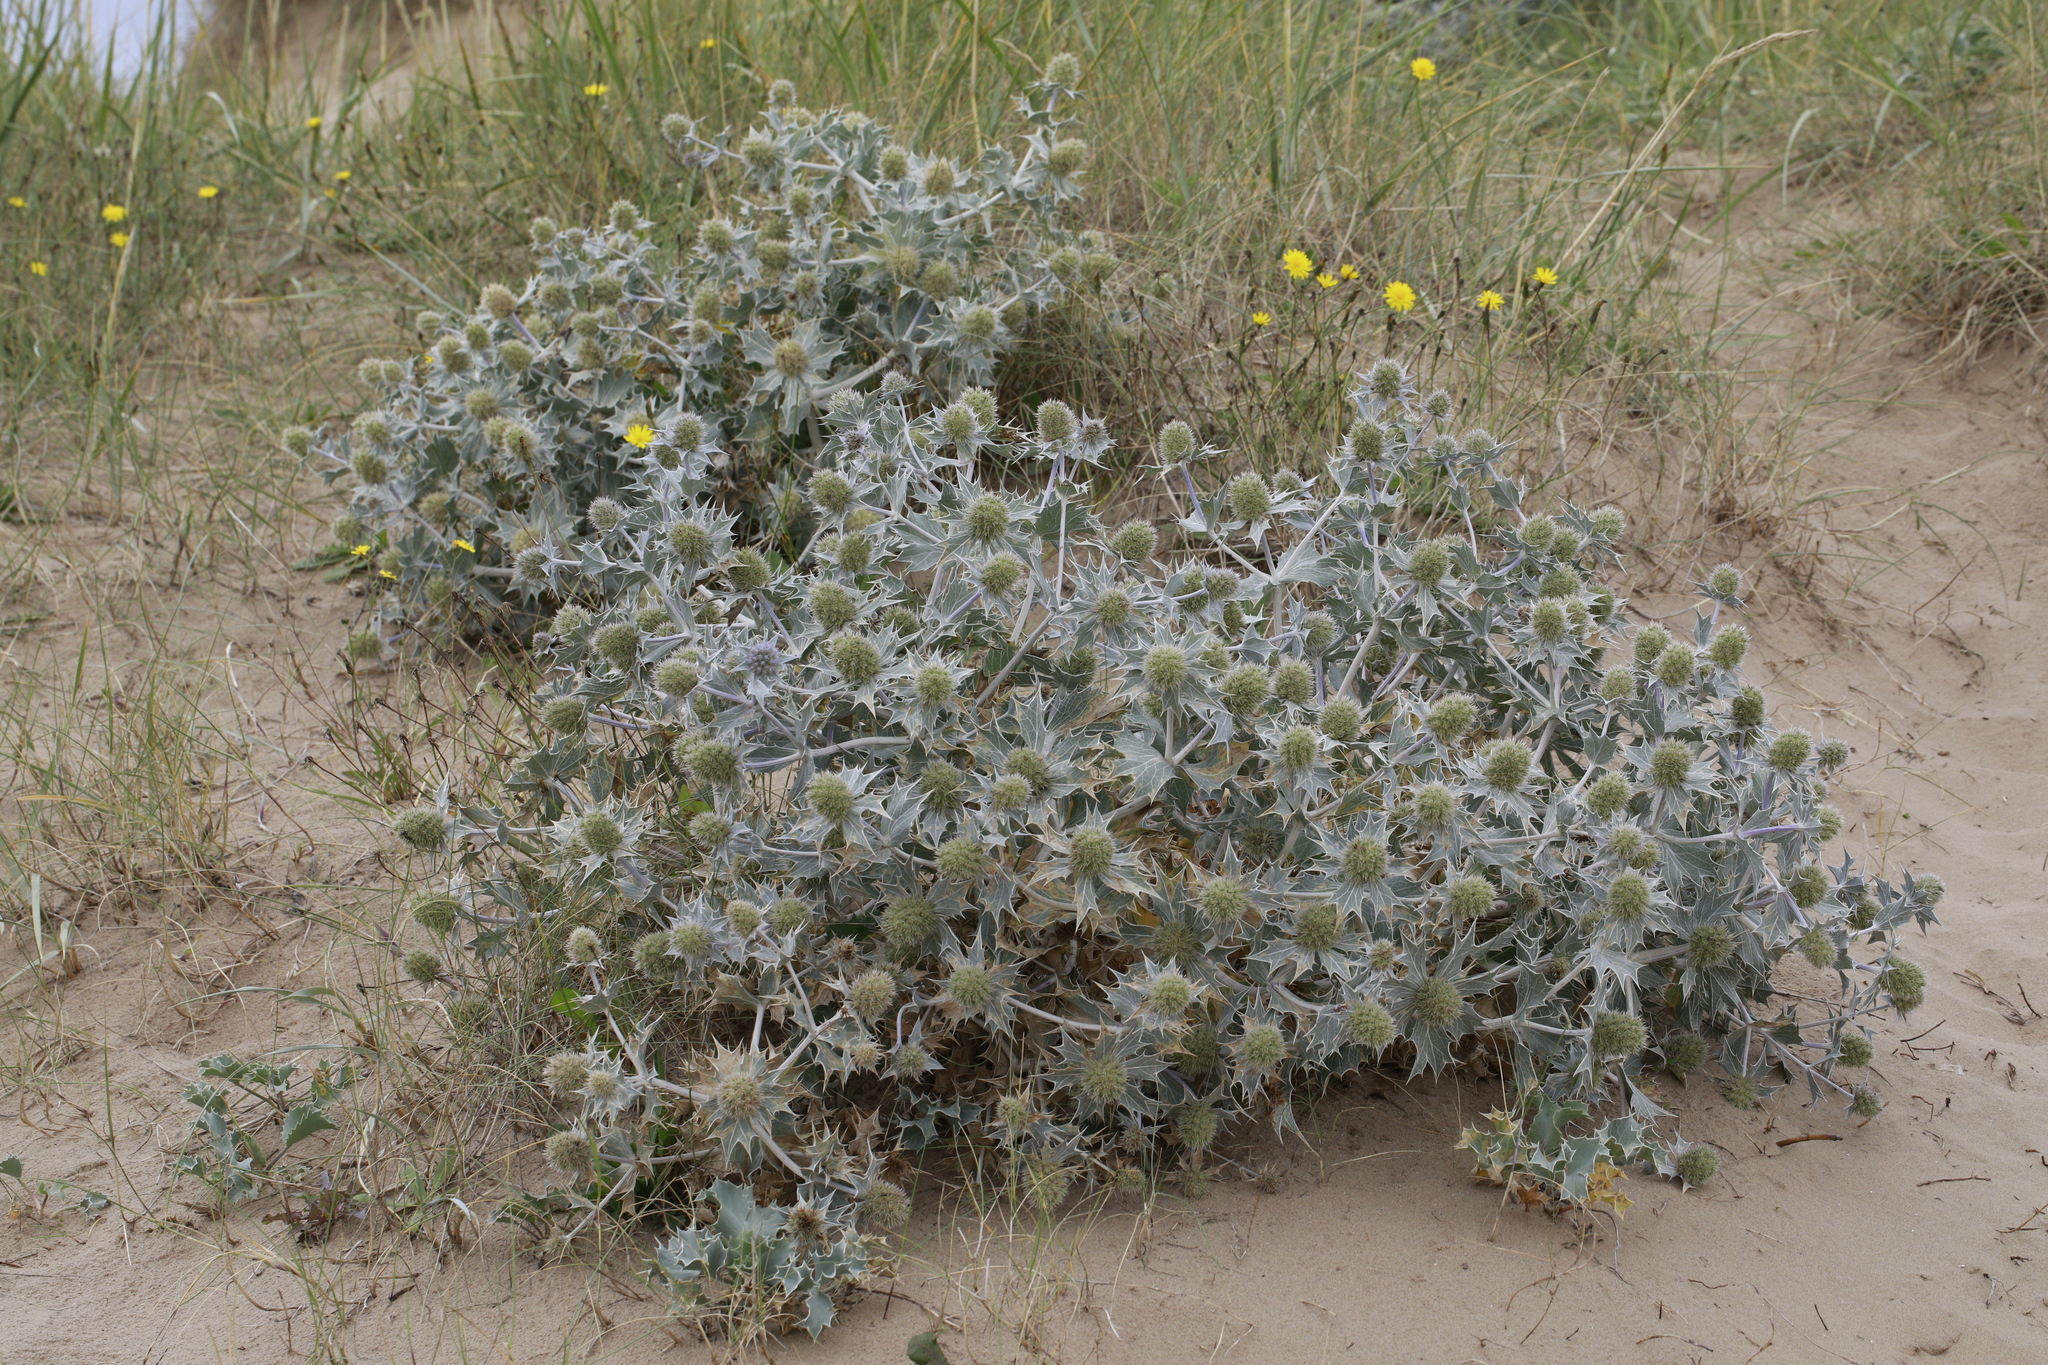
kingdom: Plantae
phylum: Tracheophyta
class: Magnoliopsida
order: Apiales
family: Apiaceae
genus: Eryngium
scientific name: Eryngium maritimum
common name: Sea-holly
